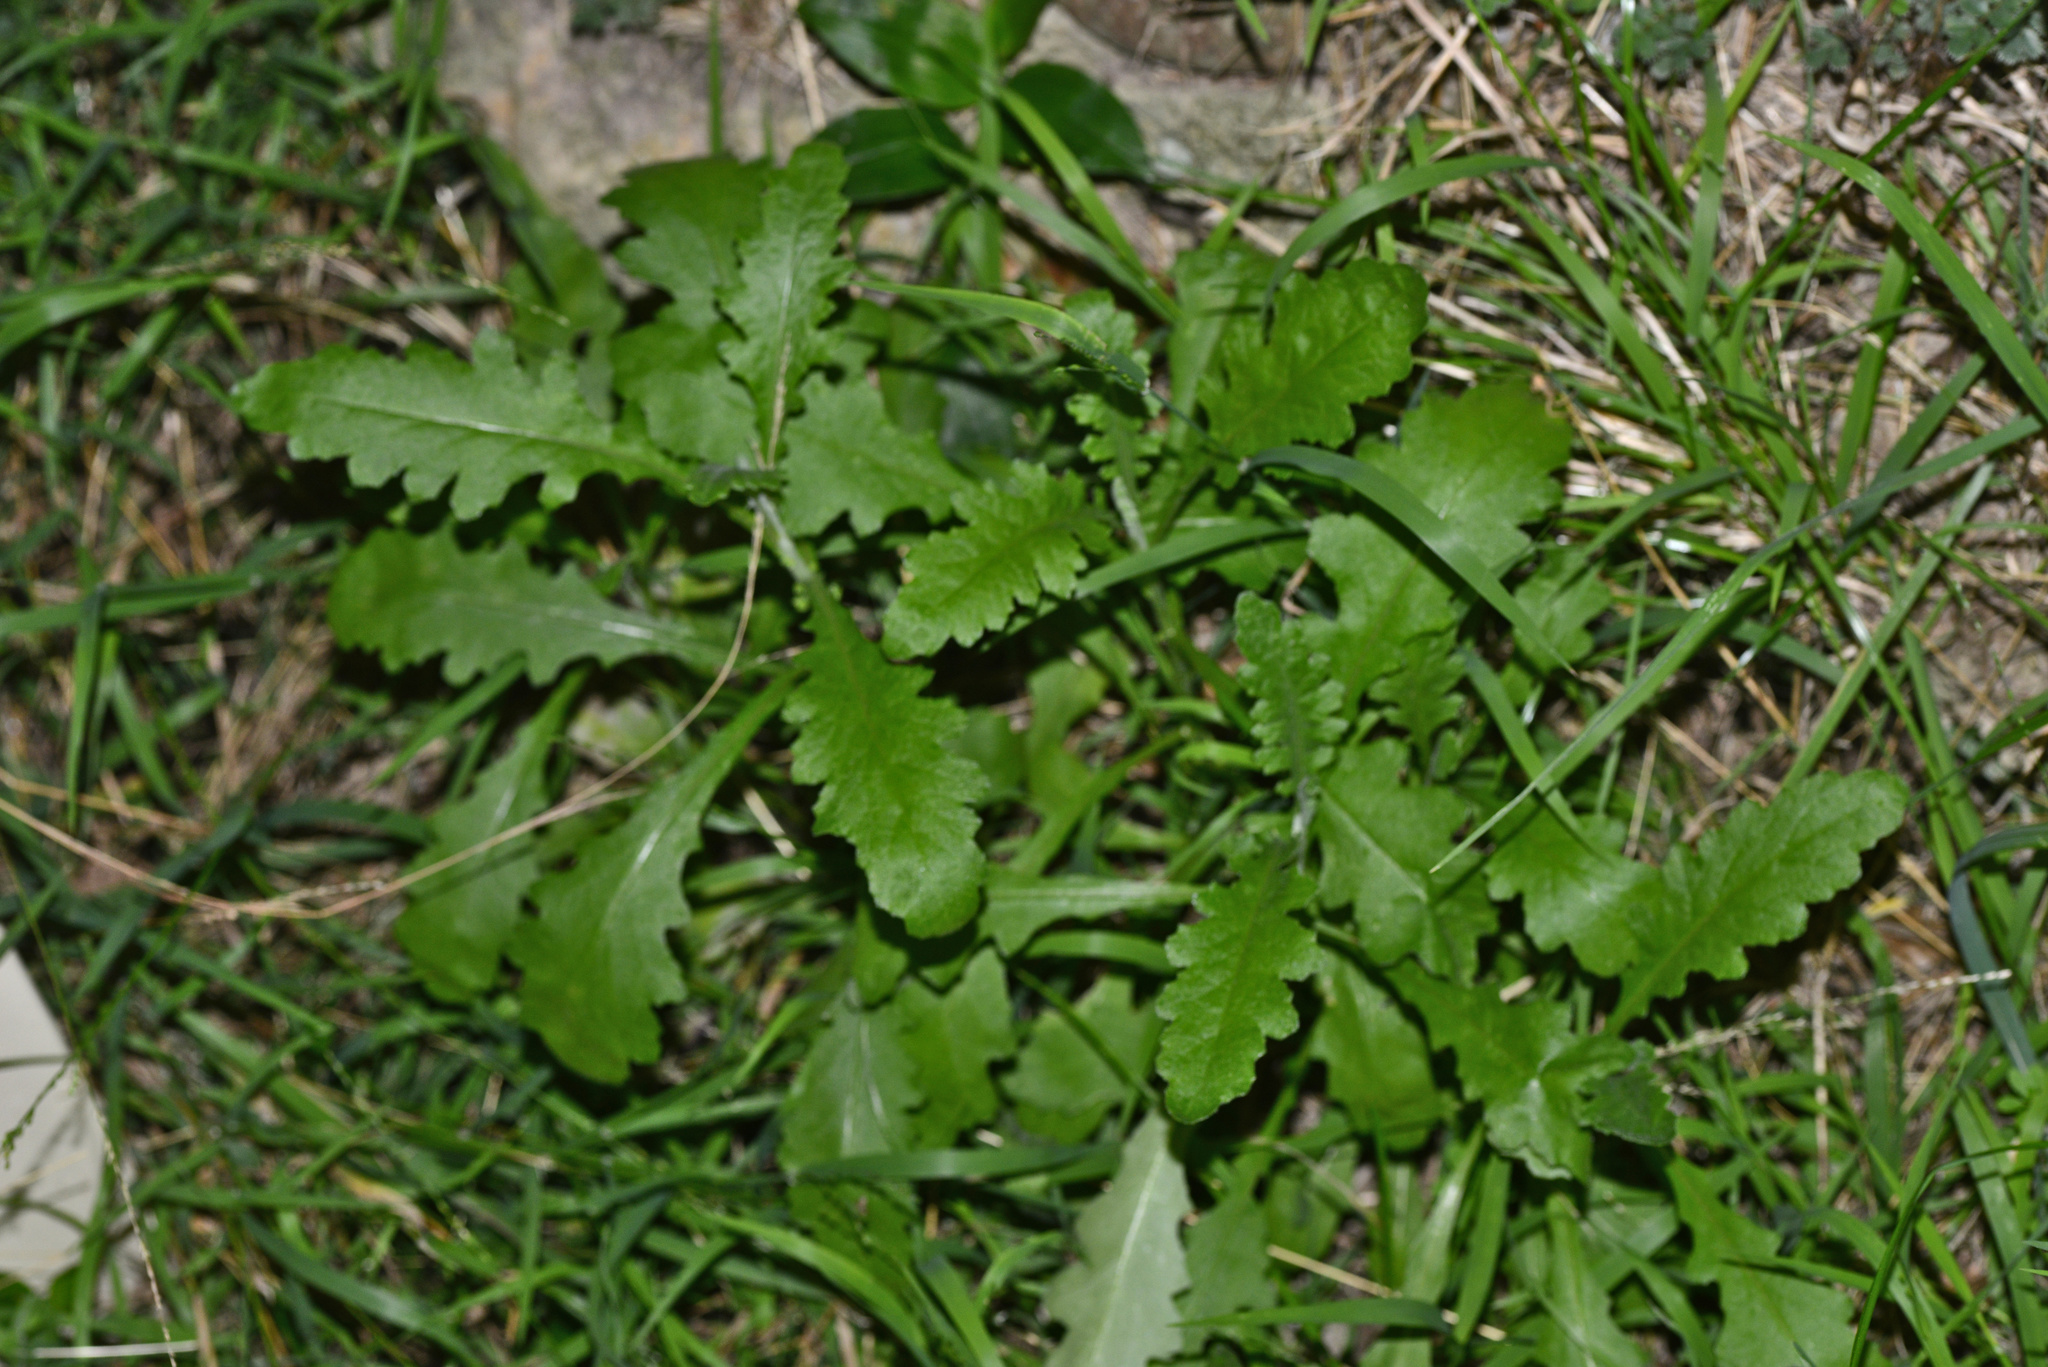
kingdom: Plantae
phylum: Tracheophyta
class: Magnoliopsida
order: Asterales
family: Asteraceae
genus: Senecio
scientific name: Senecio glomeratus
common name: Cutleaf burnweed
